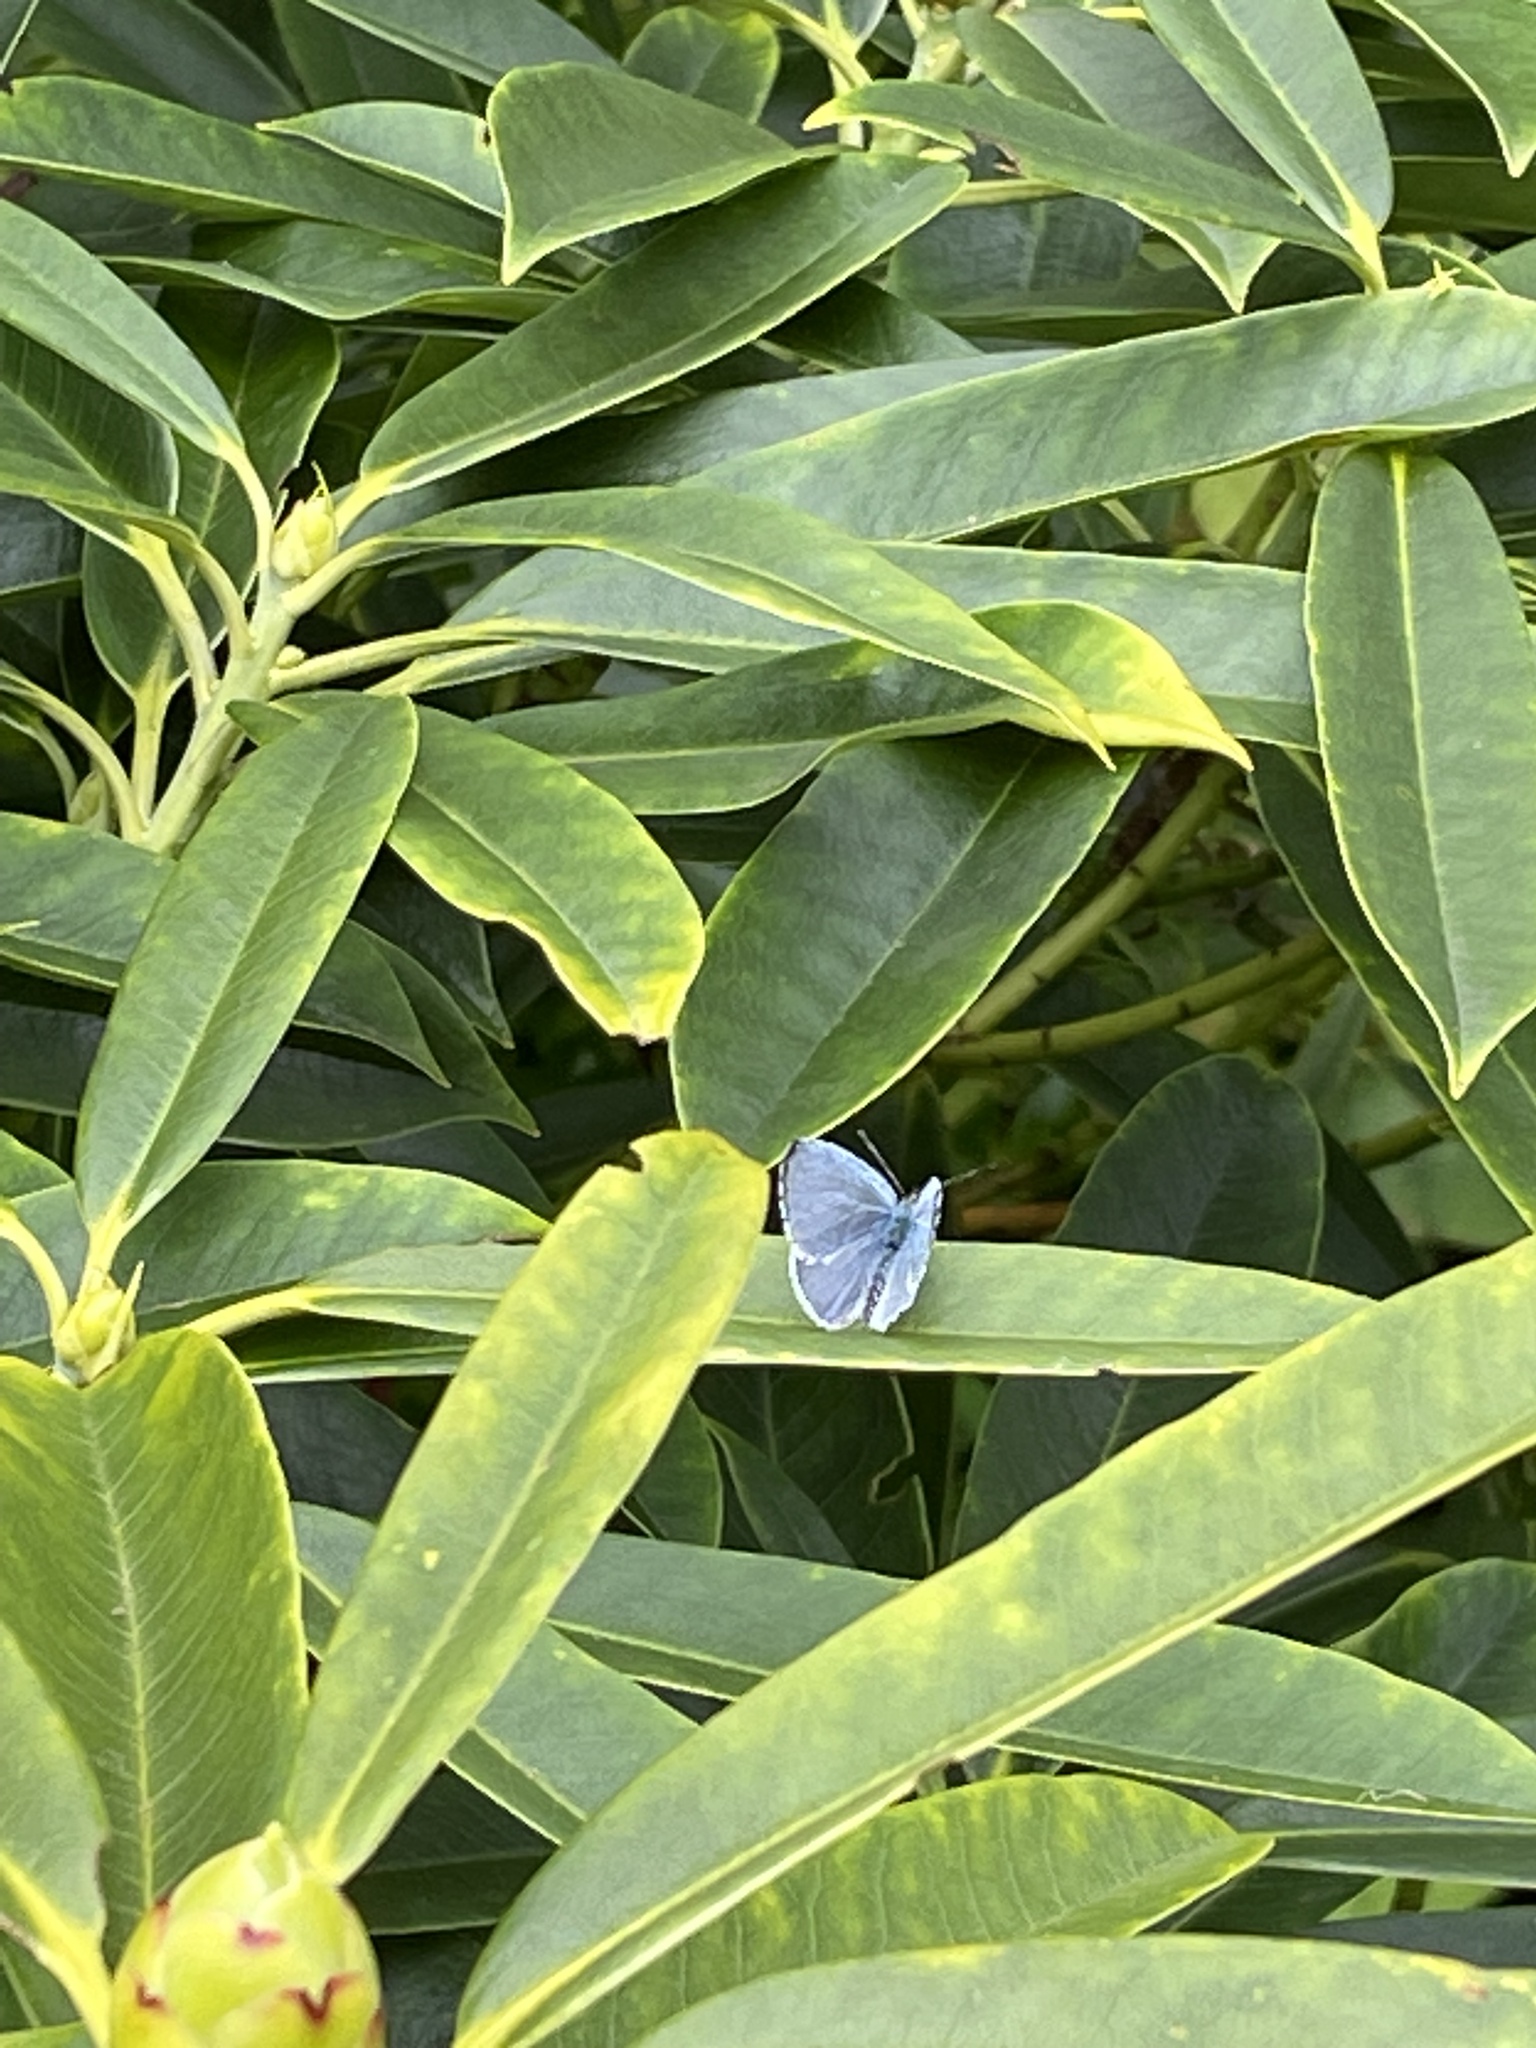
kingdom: Animalia
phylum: Arthropoda
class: Insecta
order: Lepidoptera
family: Lycaenidae
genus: Celastrina
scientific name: Celastrina argiolus
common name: Holly blue
